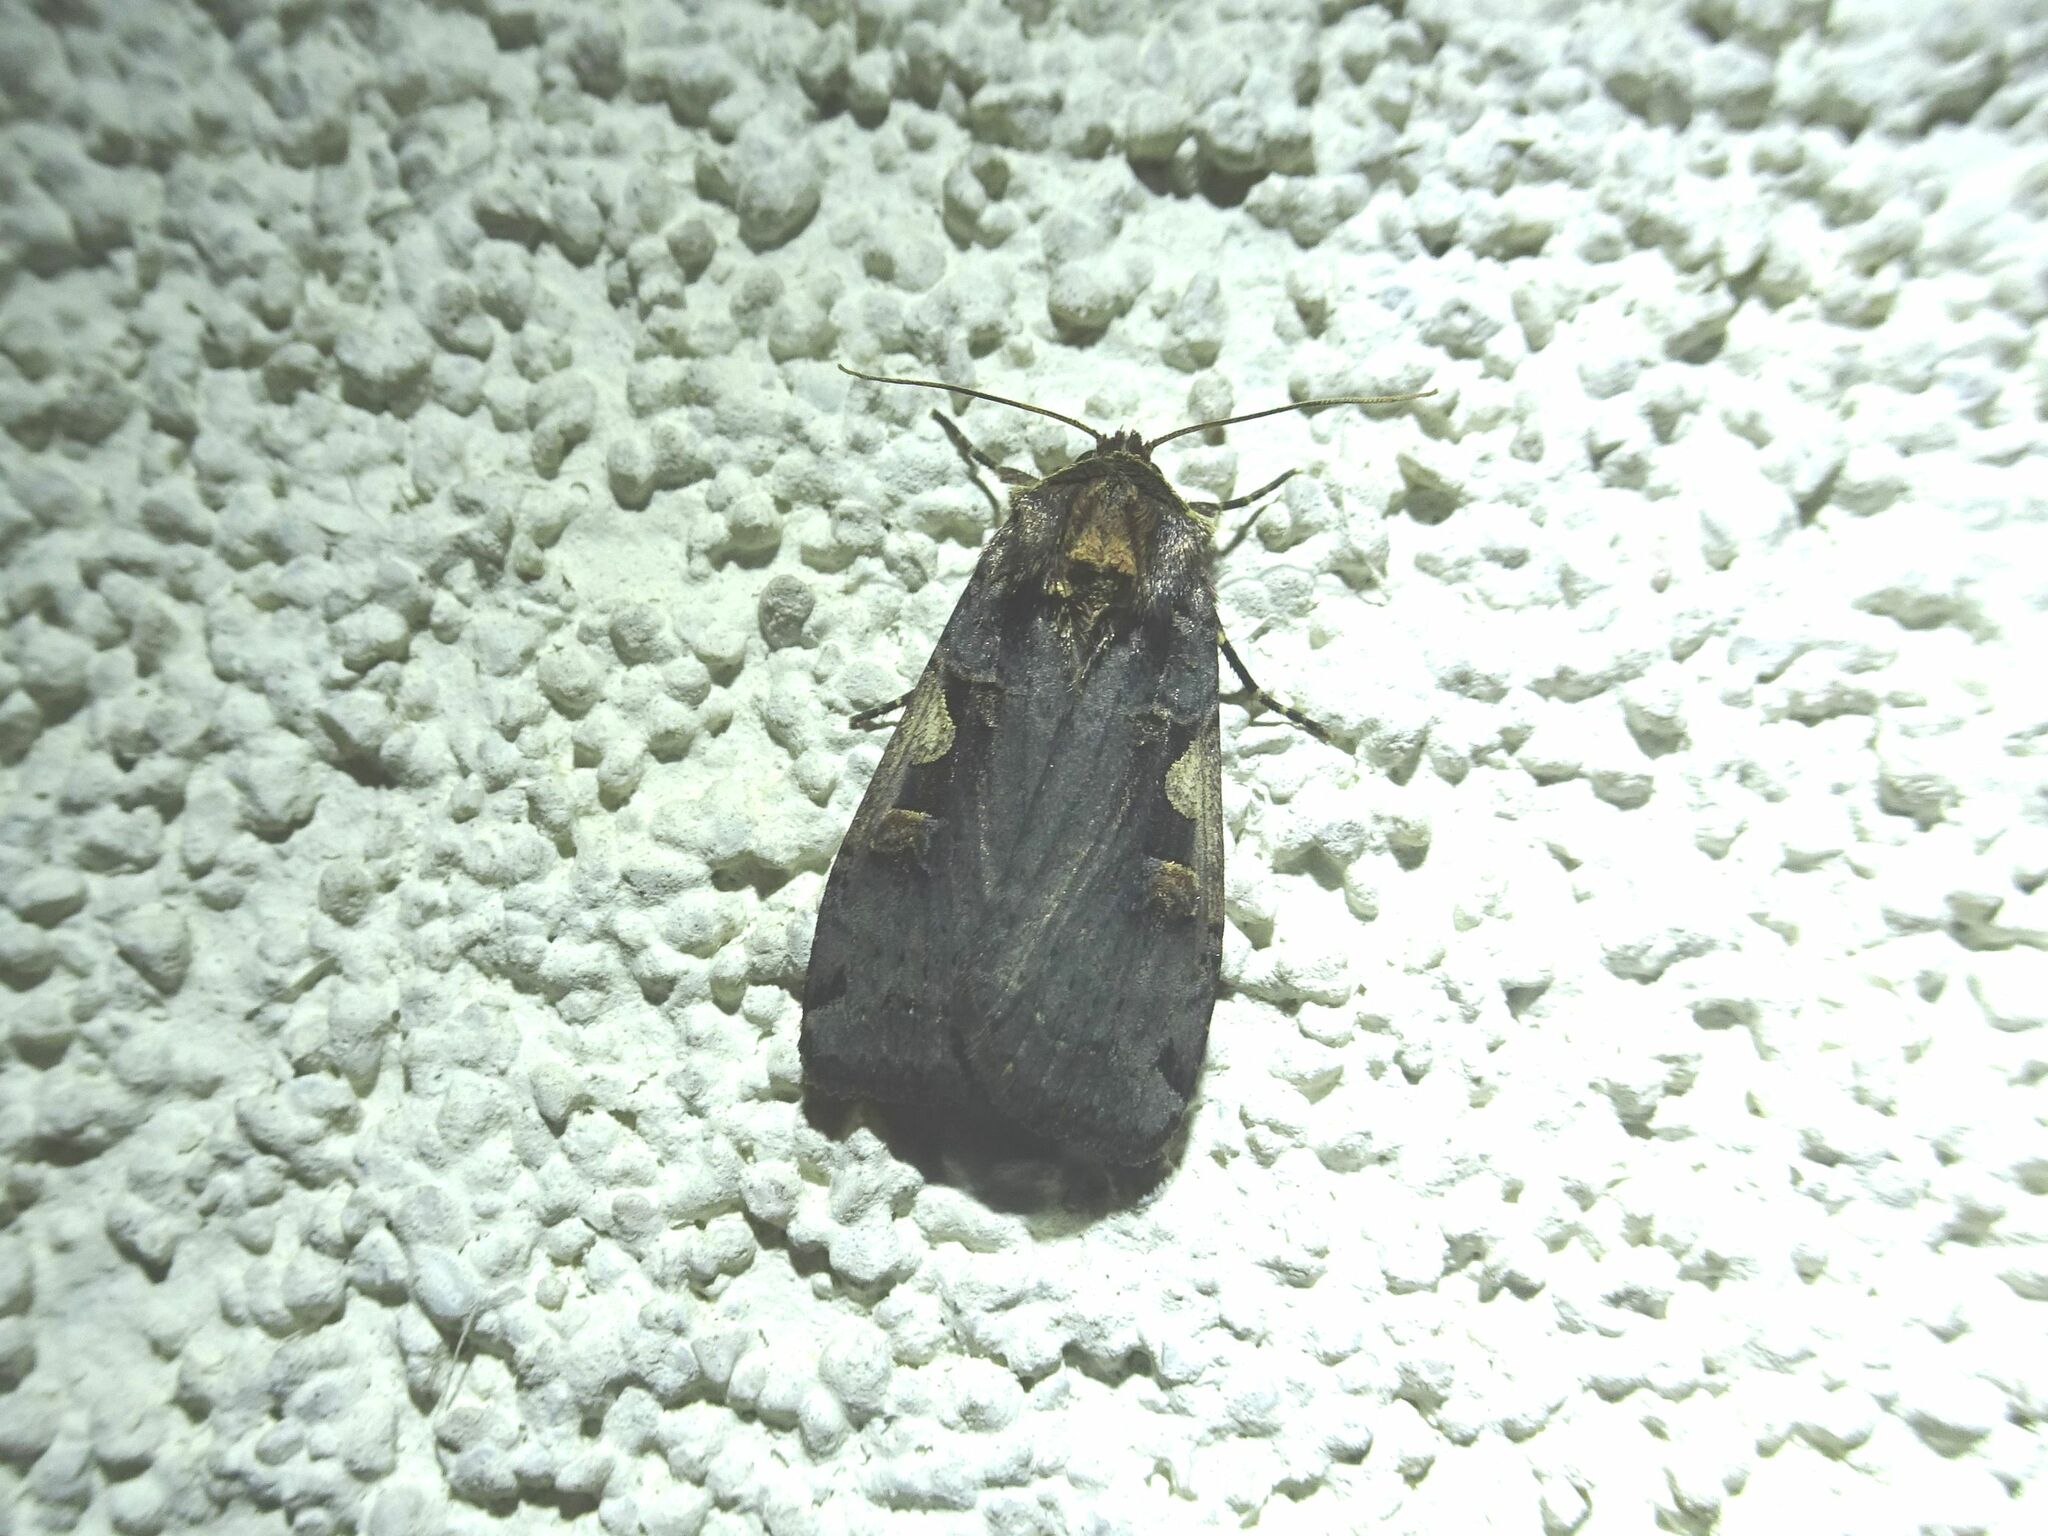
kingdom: Animalia
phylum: Arthropoda
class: Insecta
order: Lepidoptera
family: Noctuidae
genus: Xestia
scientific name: Xestia c-nigrum
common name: Setaceous hebrew character
